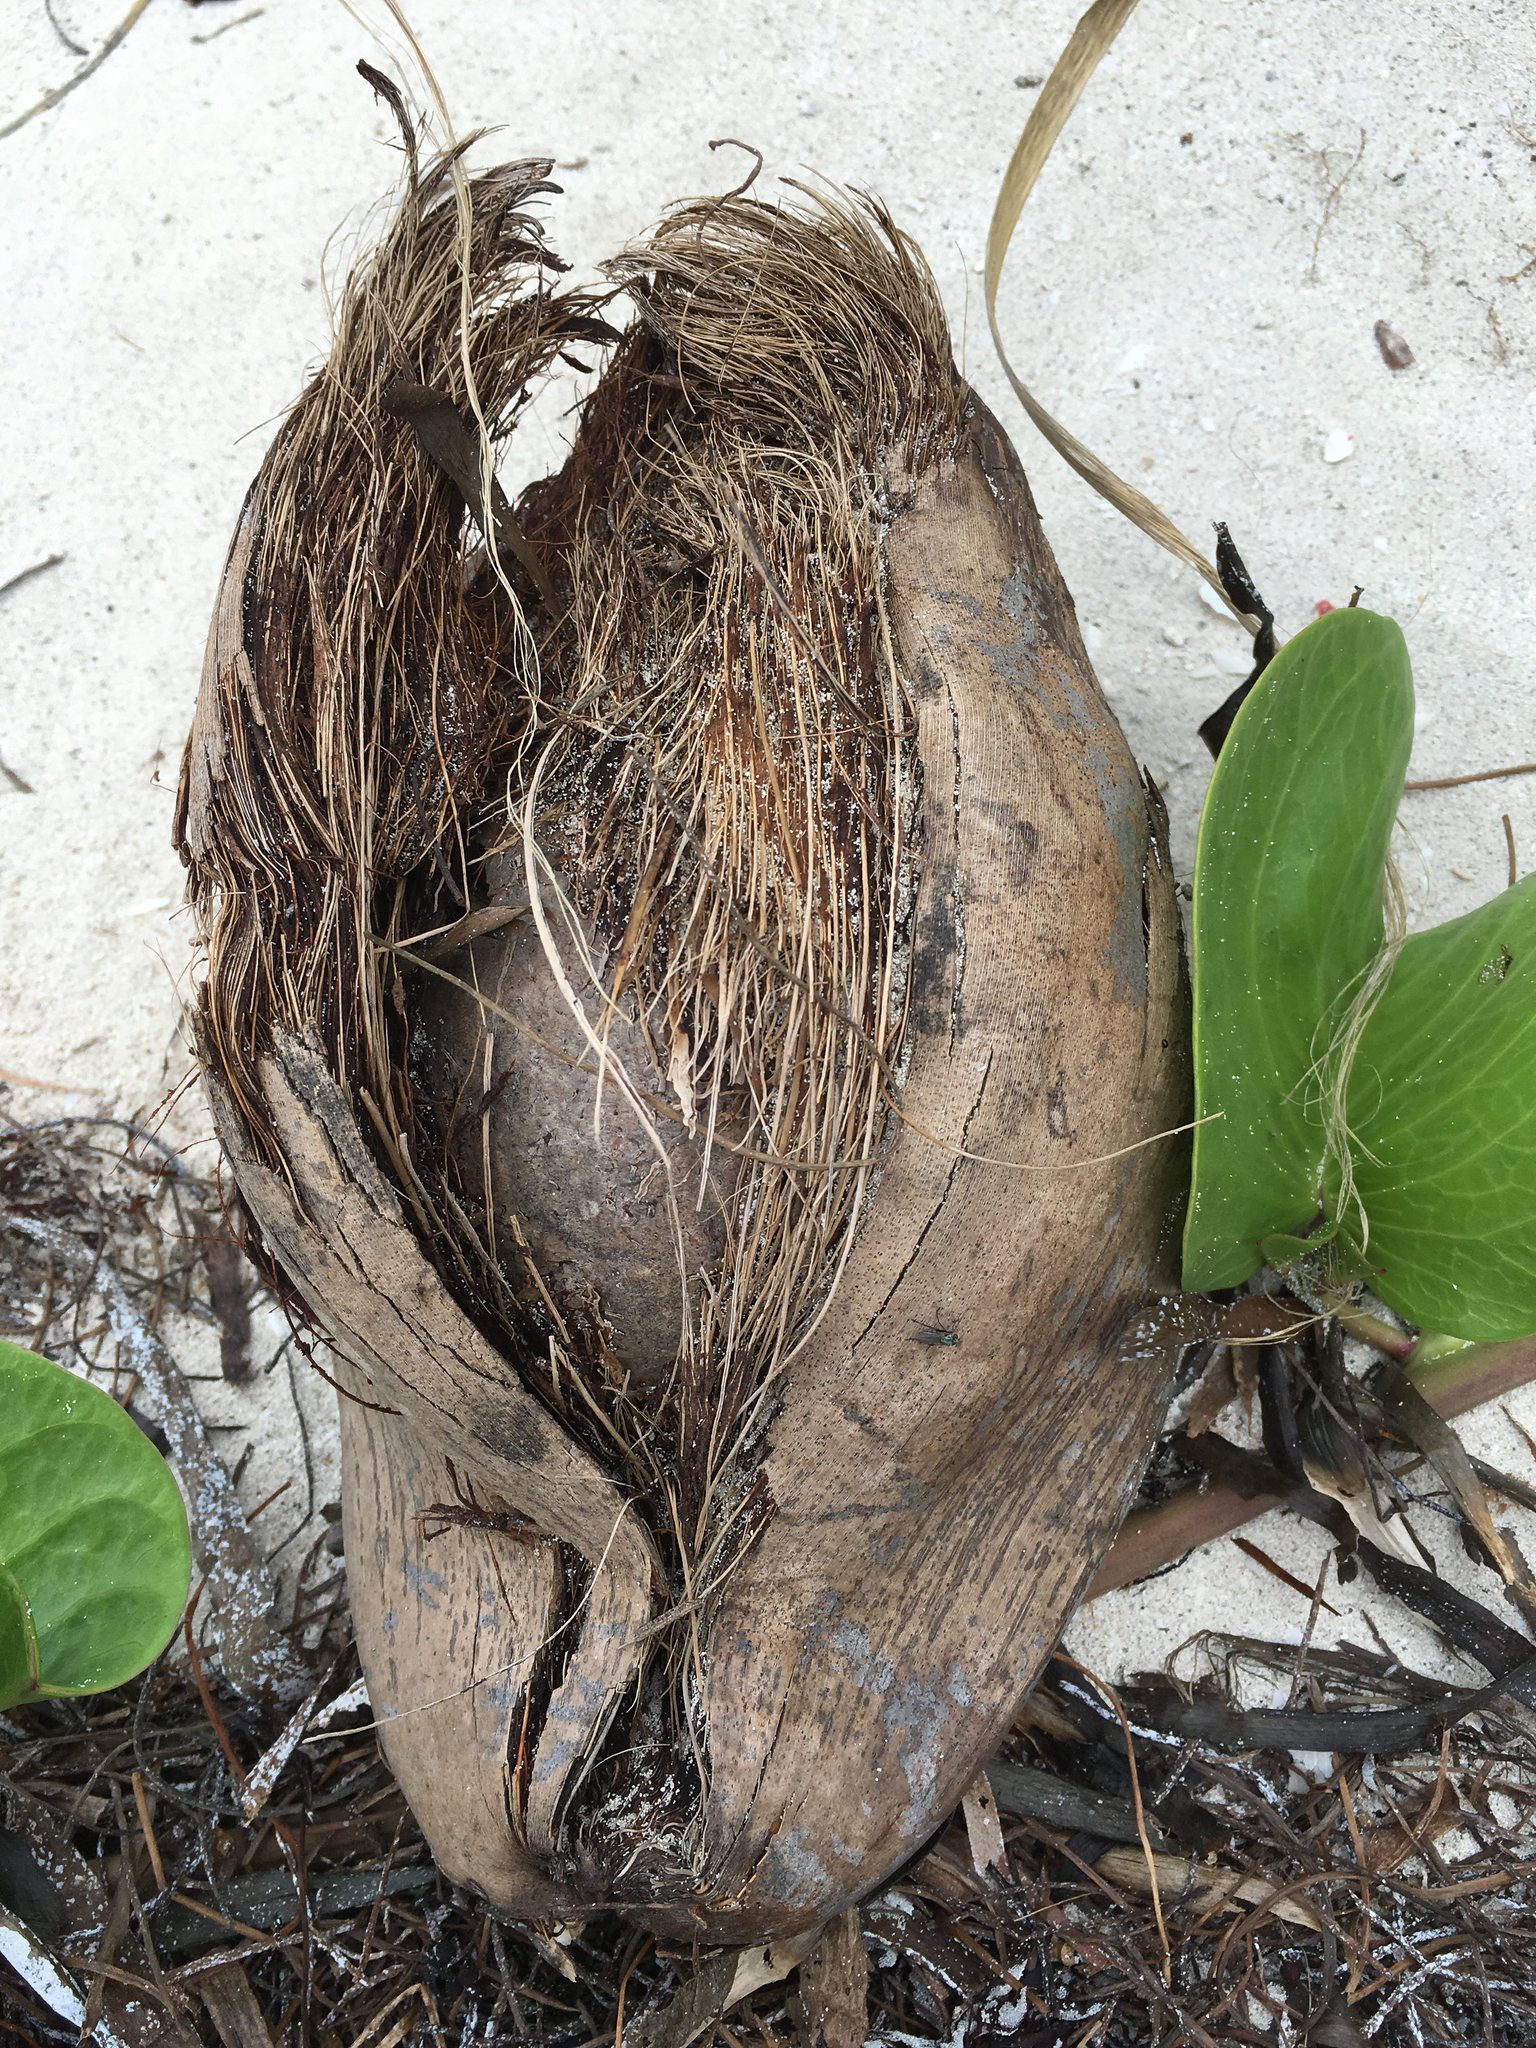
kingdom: Plantae
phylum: Tracheophyta
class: Liliopsida
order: Arecales
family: Arecaceae
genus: Cocos
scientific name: Cocos nucifera
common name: Coconut palm
